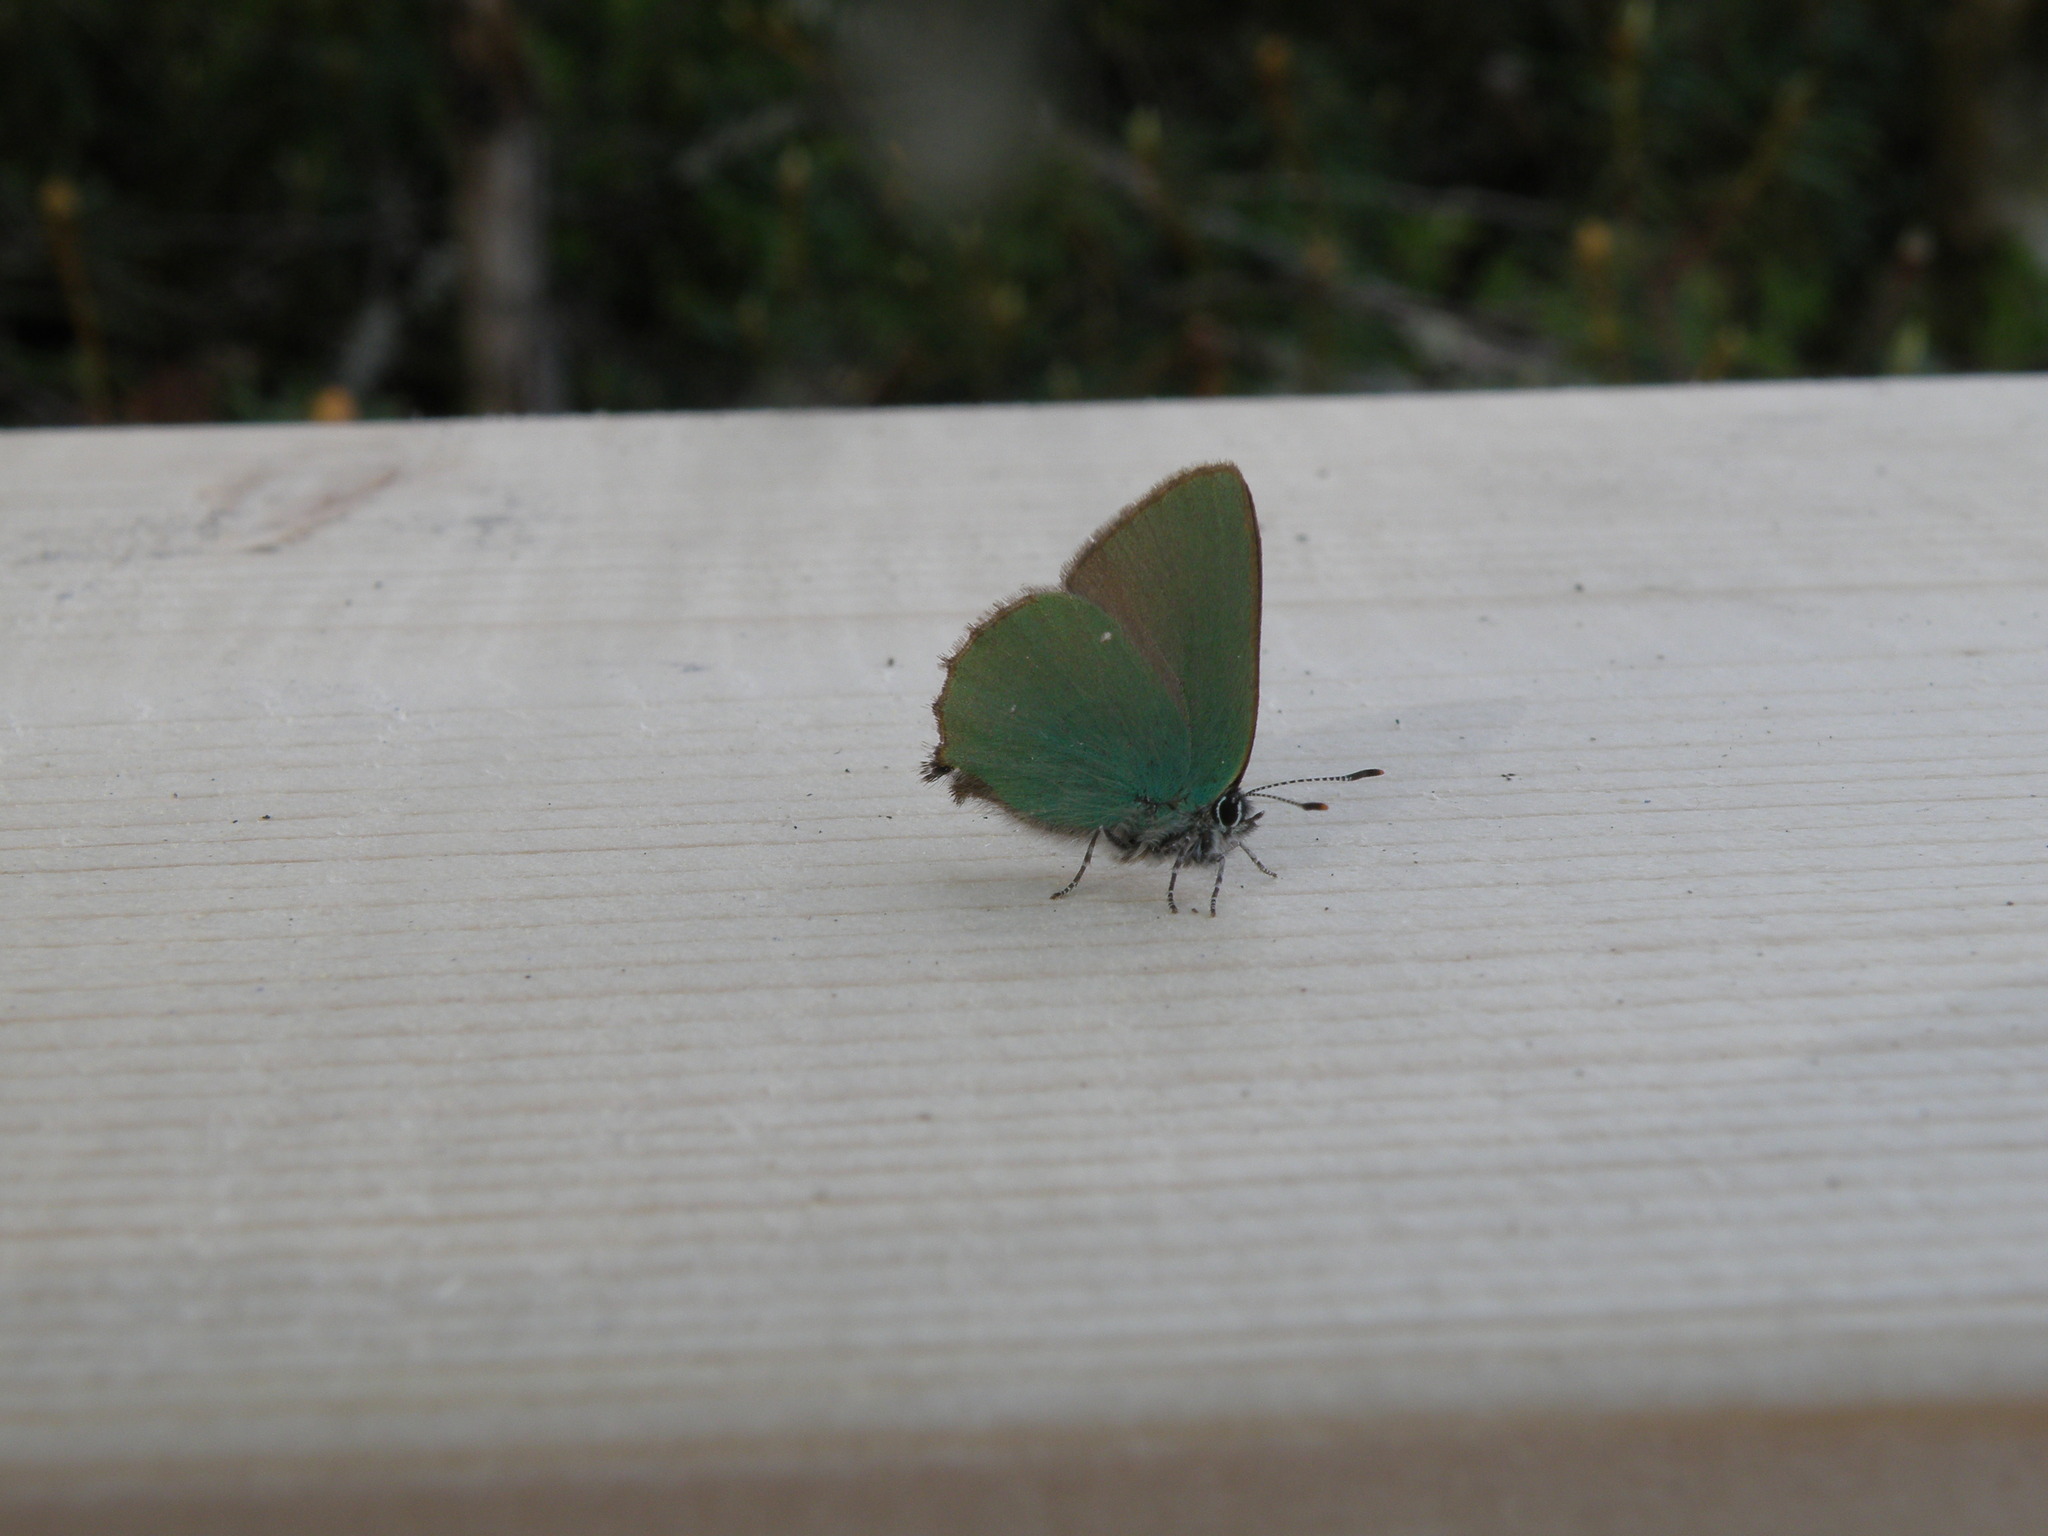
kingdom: Animalia
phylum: Arthropoda
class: Insecta
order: Lepidoptera
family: Lycaenidae
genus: Callophrys
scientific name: Callophrys rubi
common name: Green hairstreak
